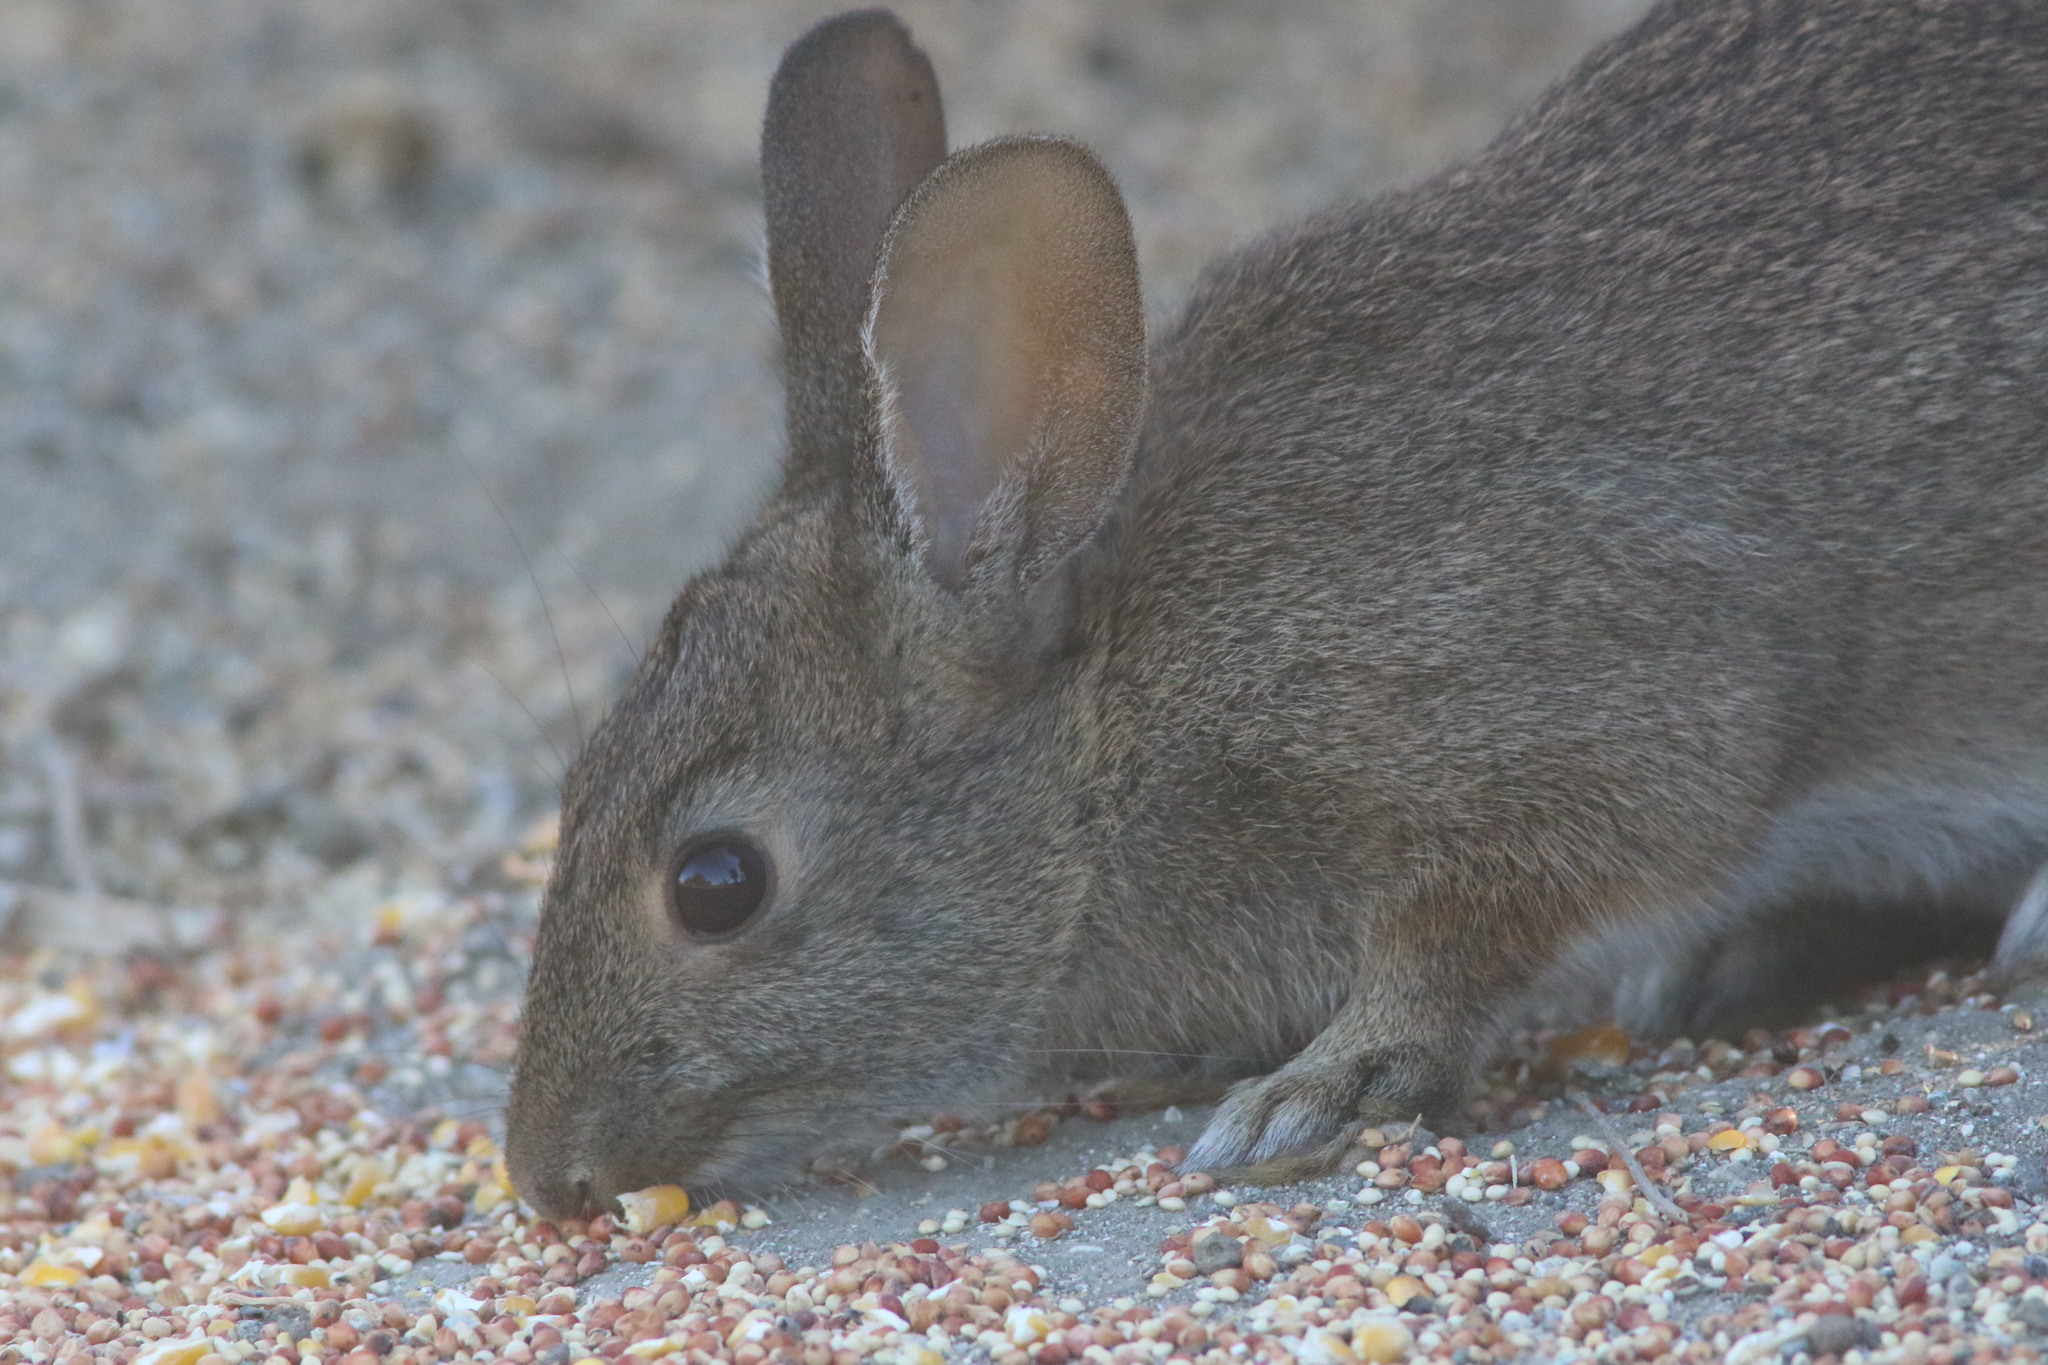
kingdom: Animalia
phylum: Chordata
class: Mammalia
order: Lagomorpha
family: Leporidae
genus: Sylvilagus
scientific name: Sylvilagus bachmani
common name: Brush rabbit
